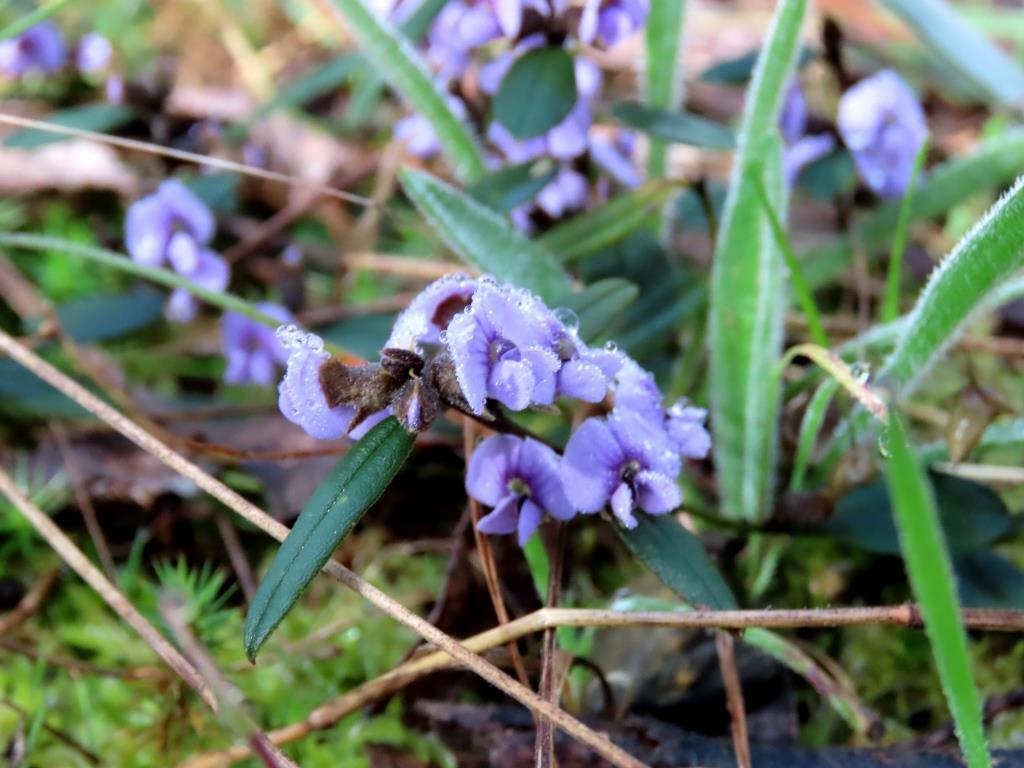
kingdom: Plantae
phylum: Tracheophyta
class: Magnoliopsida
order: Fabales
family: Fabaceae
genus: Hovea
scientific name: Hovea heterophylla
